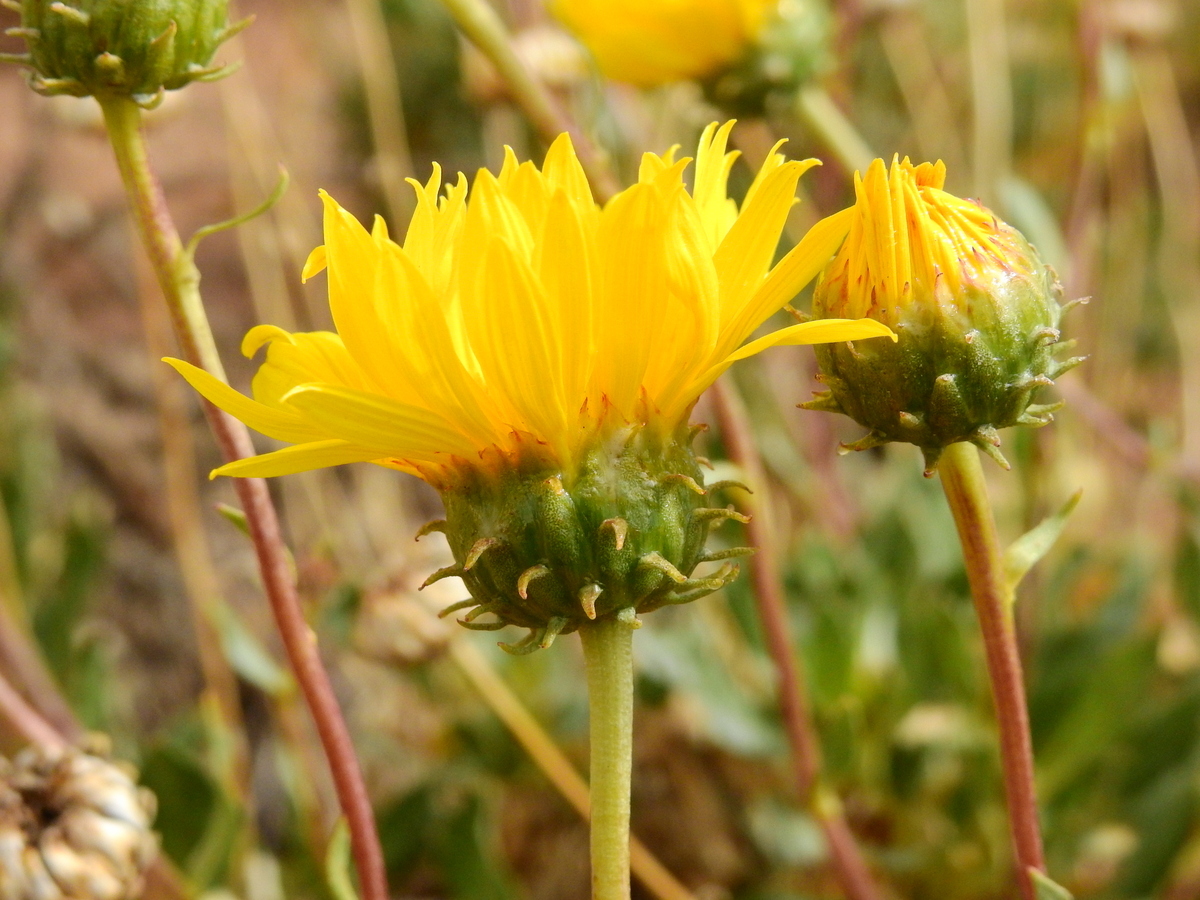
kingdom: Plantae
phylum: Tracheophyta
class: Magnoliopsida
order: Asterales
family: Asteraceae
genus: Grindelia
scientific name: Grindelia chiloensis
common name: Shrubby gumweed
